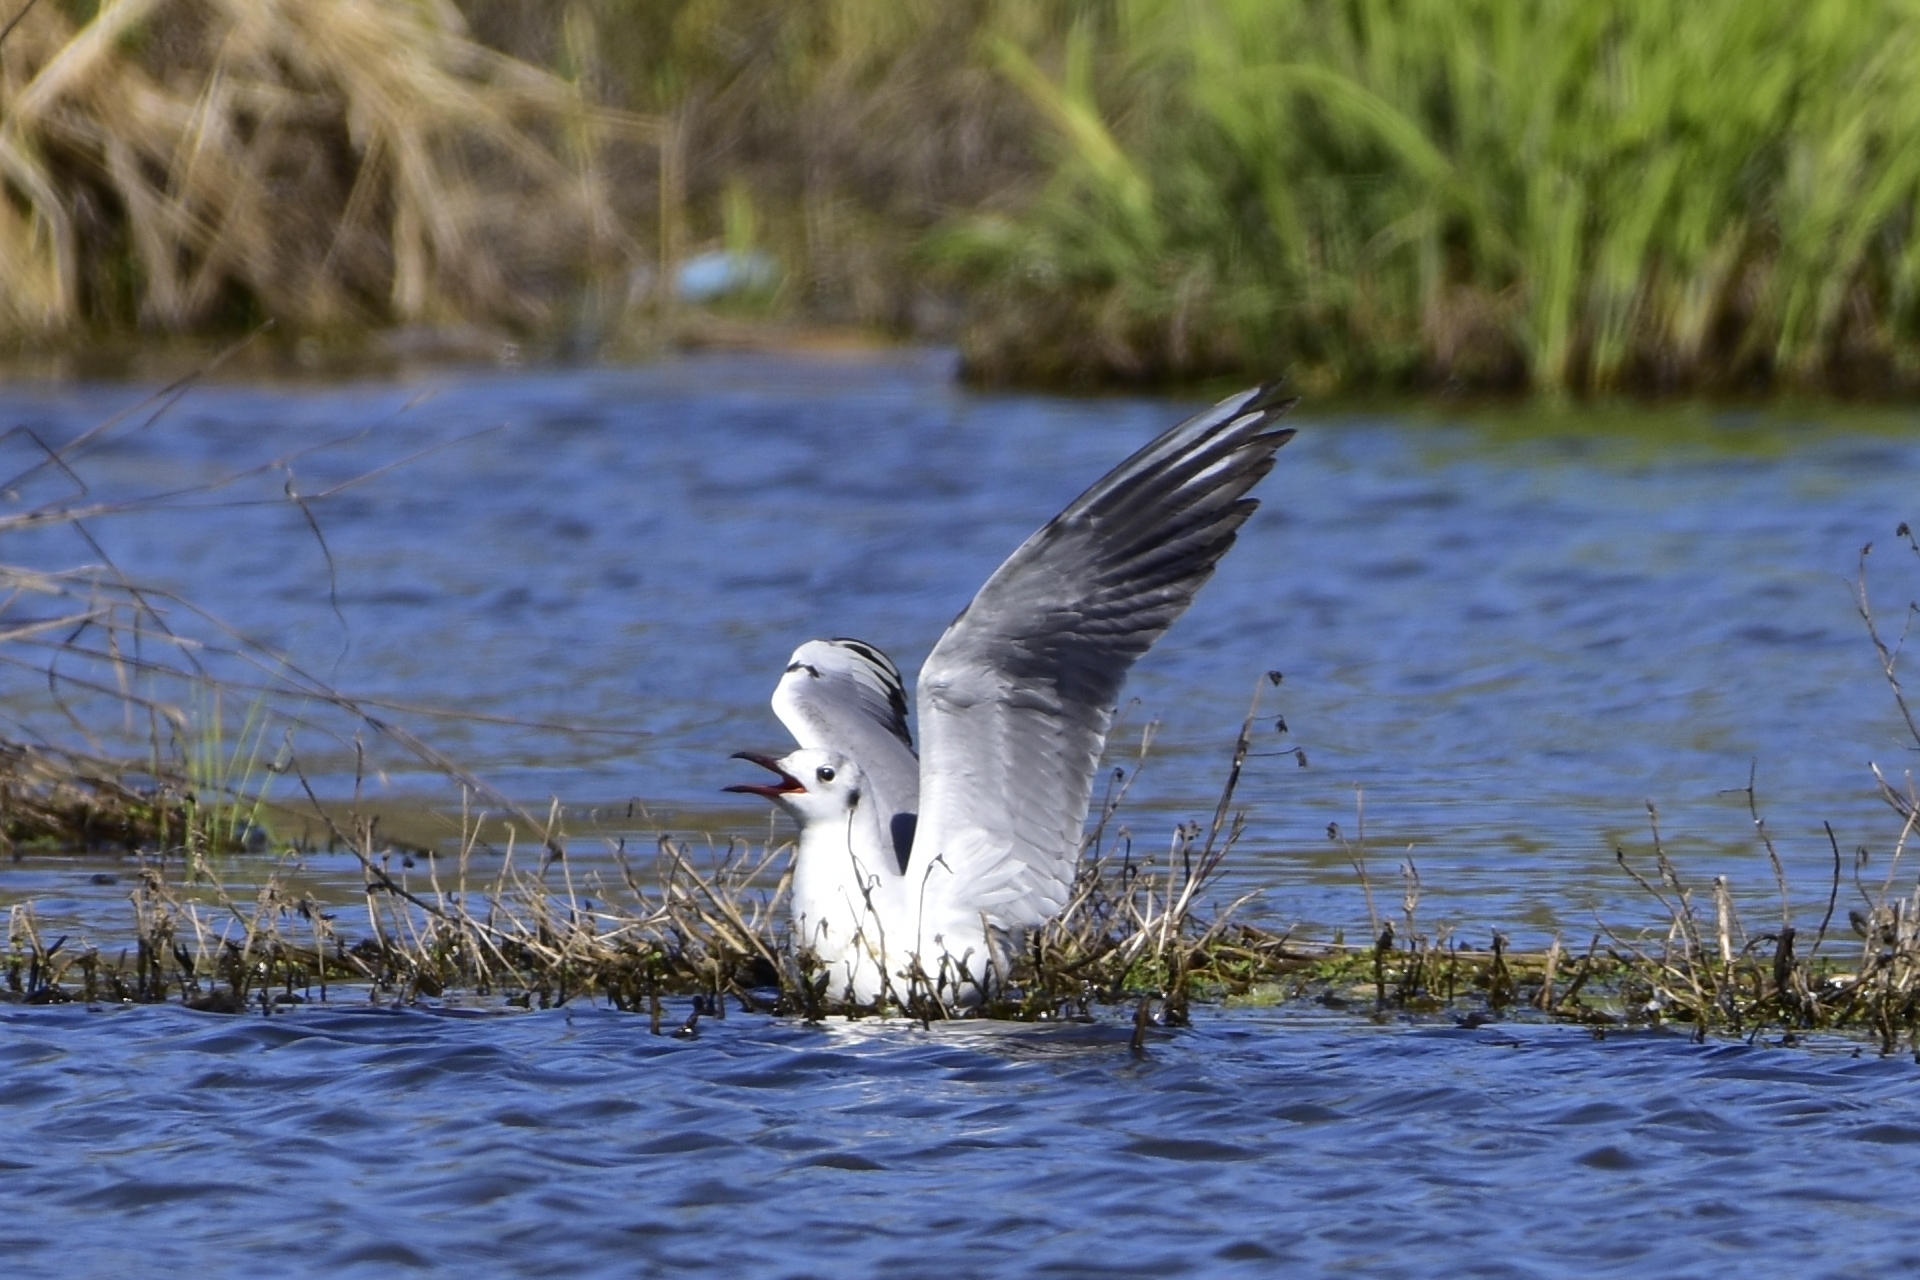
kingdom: Animalia
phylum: Chordata
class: Aves
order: Charadriiformes
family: Laridae
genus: Chroicocephalus
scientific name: Chroicocephalus ridibundus
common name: Black-headed gull
